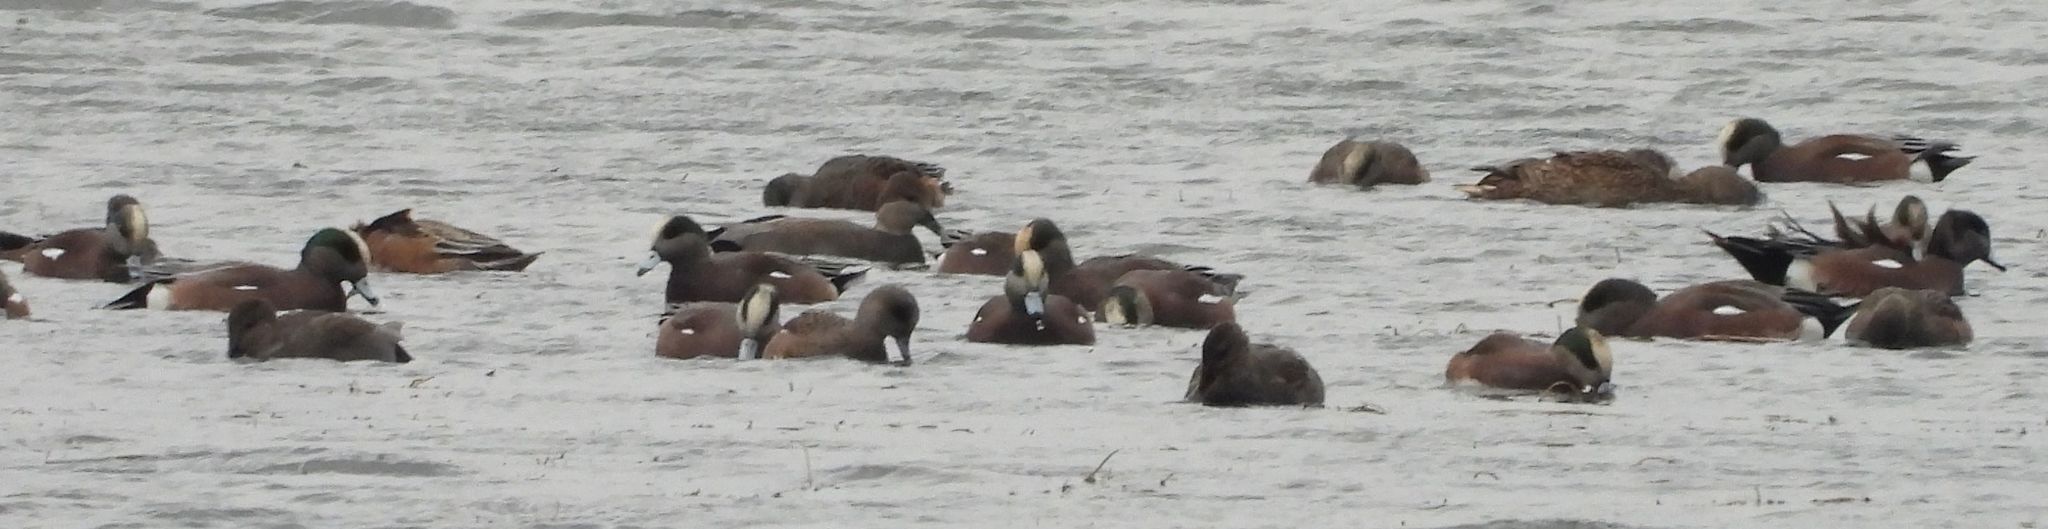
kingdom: Animalia
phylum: Chordata
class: Aves
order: Anseriformes
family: Anatidae
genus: Mareca
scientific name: Mareca americana
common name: American wigeon
